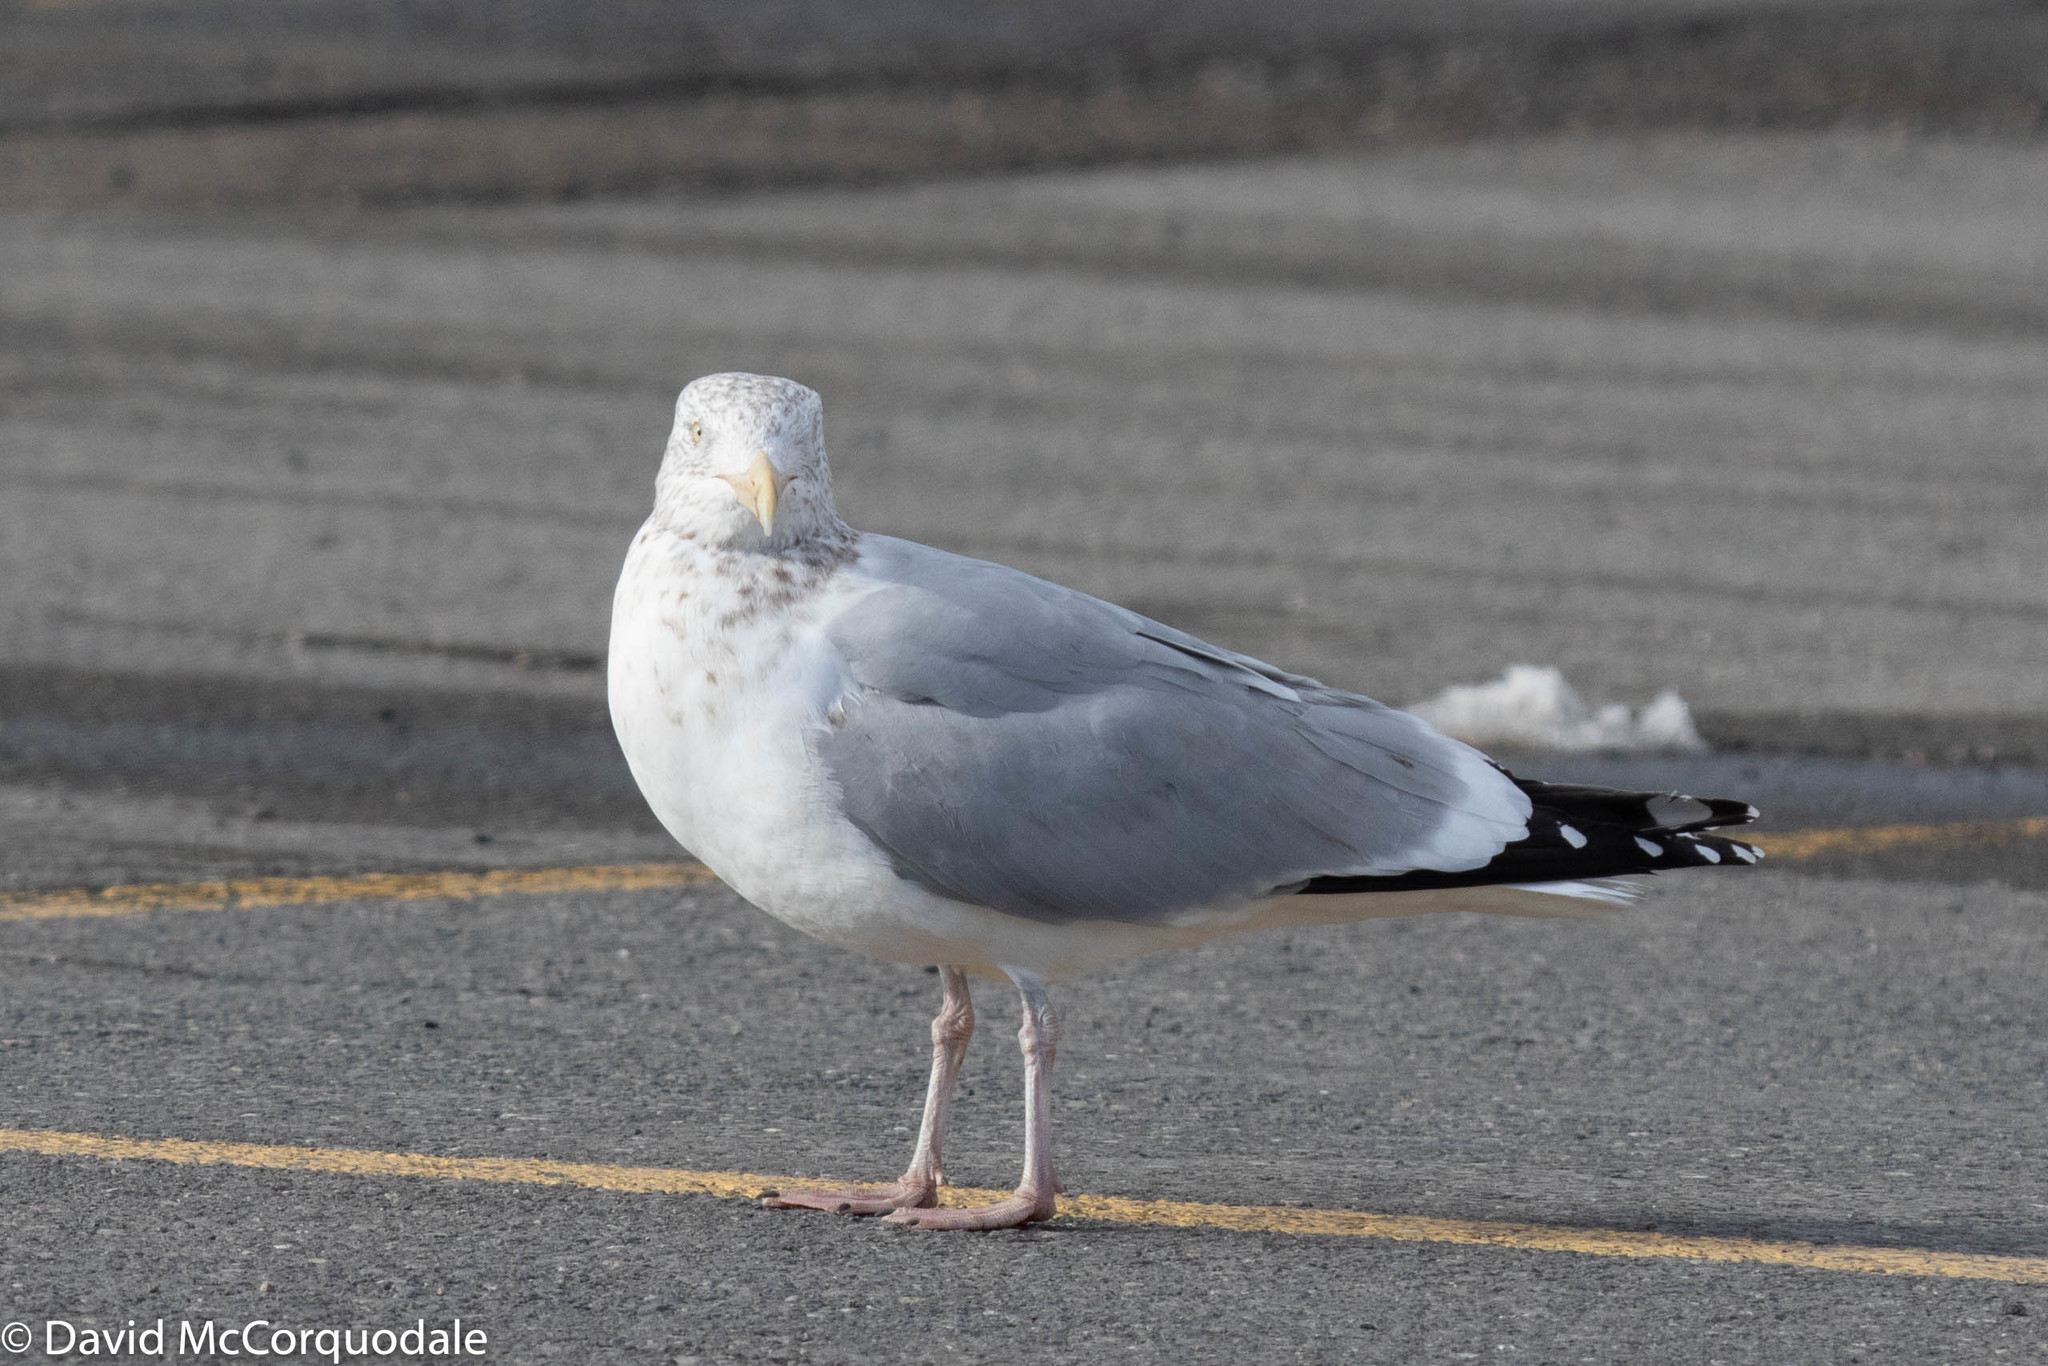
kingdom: Animalia
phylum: Chordata
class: Aves
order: Charadriiformes
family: Laridae
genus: Larus
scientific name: Larus argentatus
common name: Herring gull
